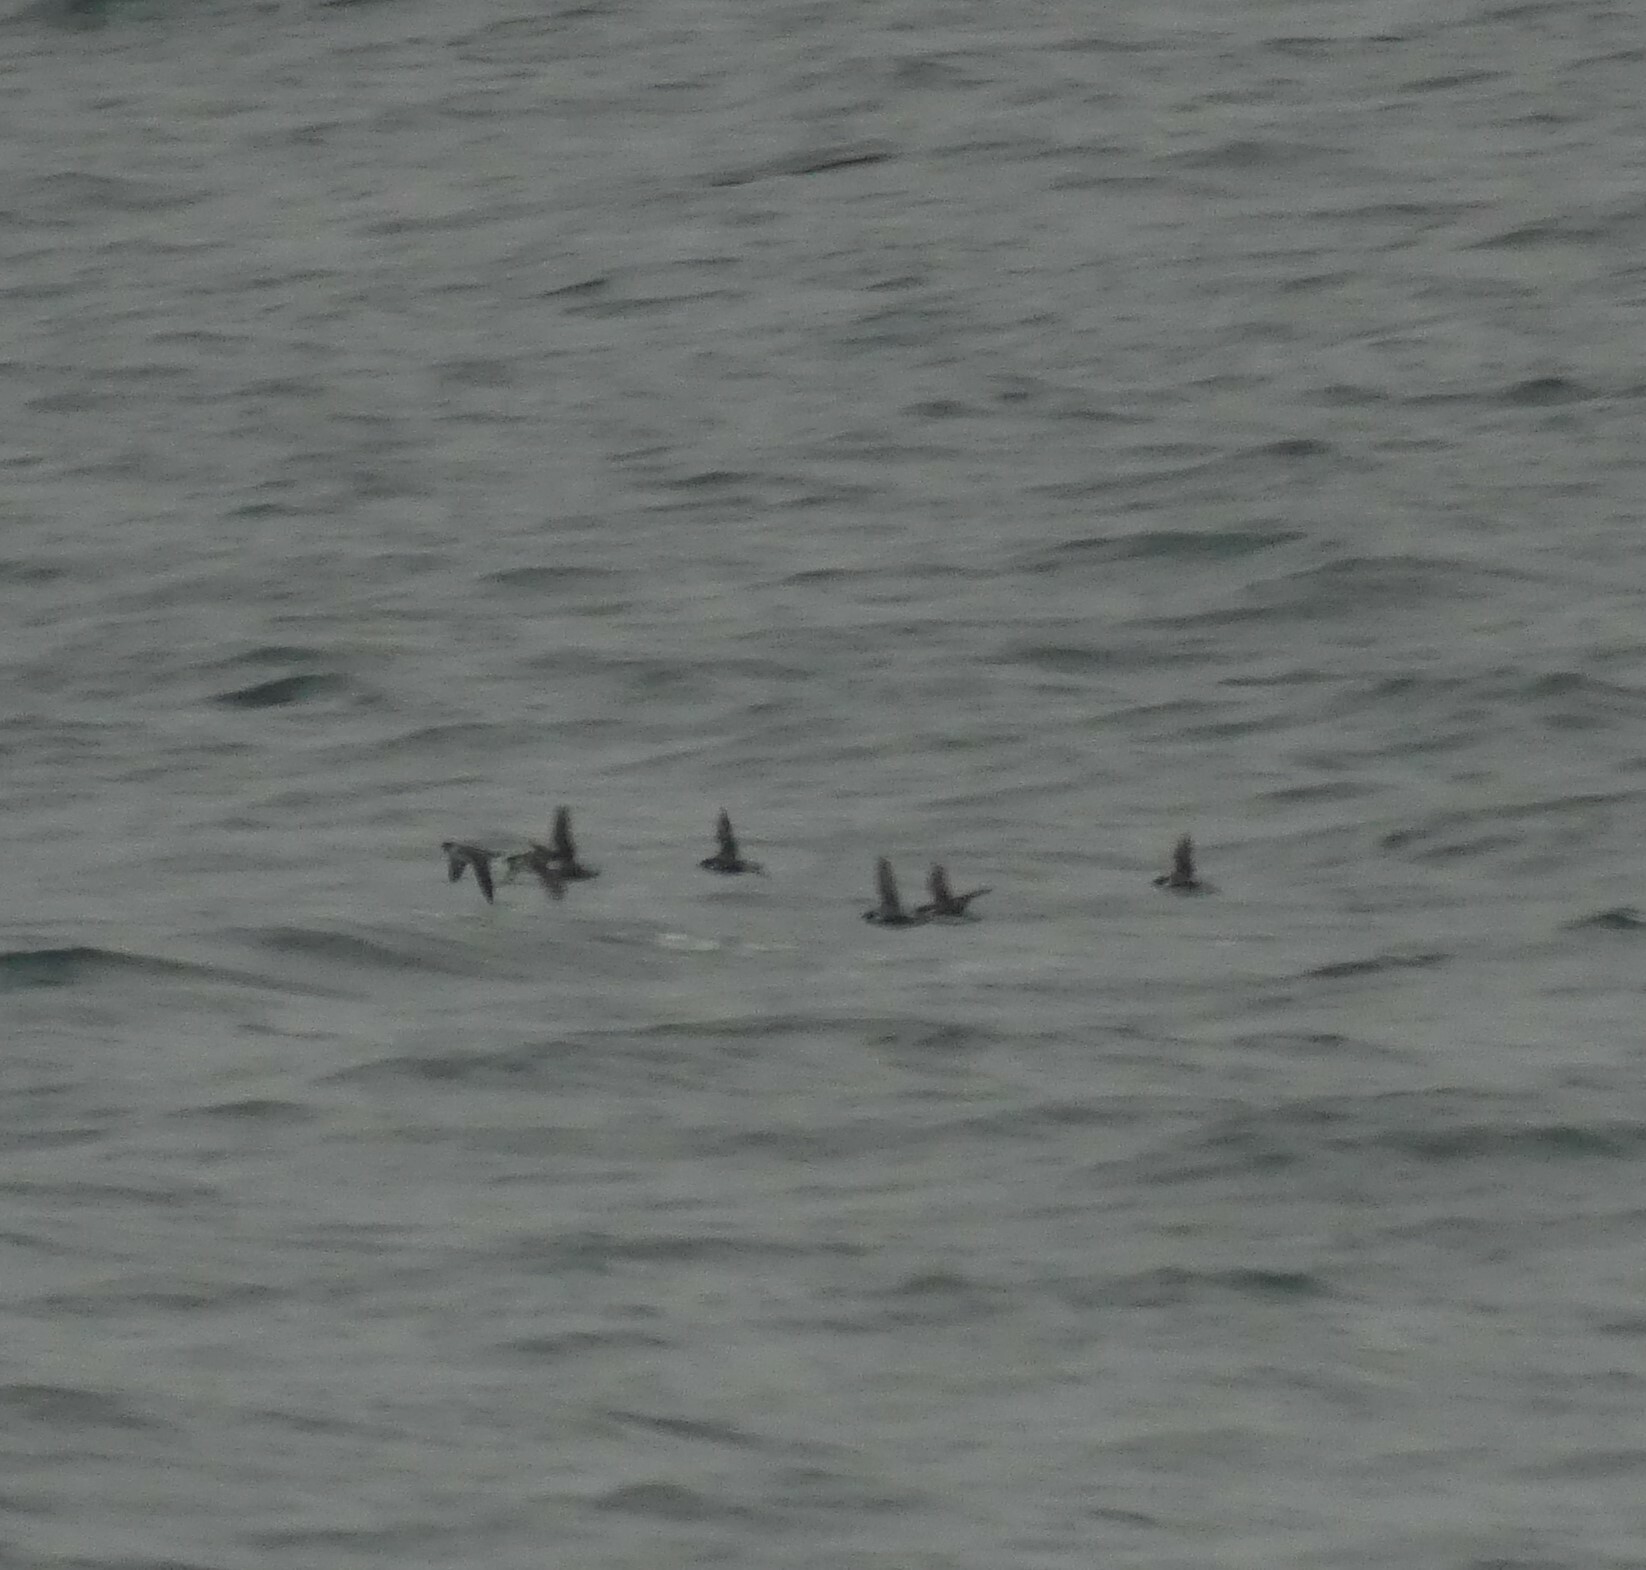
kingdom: Animalia
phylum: Chordata
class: Aves
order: Charadriiformes
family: Alcidae
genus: Synthliboramphus
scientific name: Synthliboramphus antiquus
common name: Ancient murrelet
